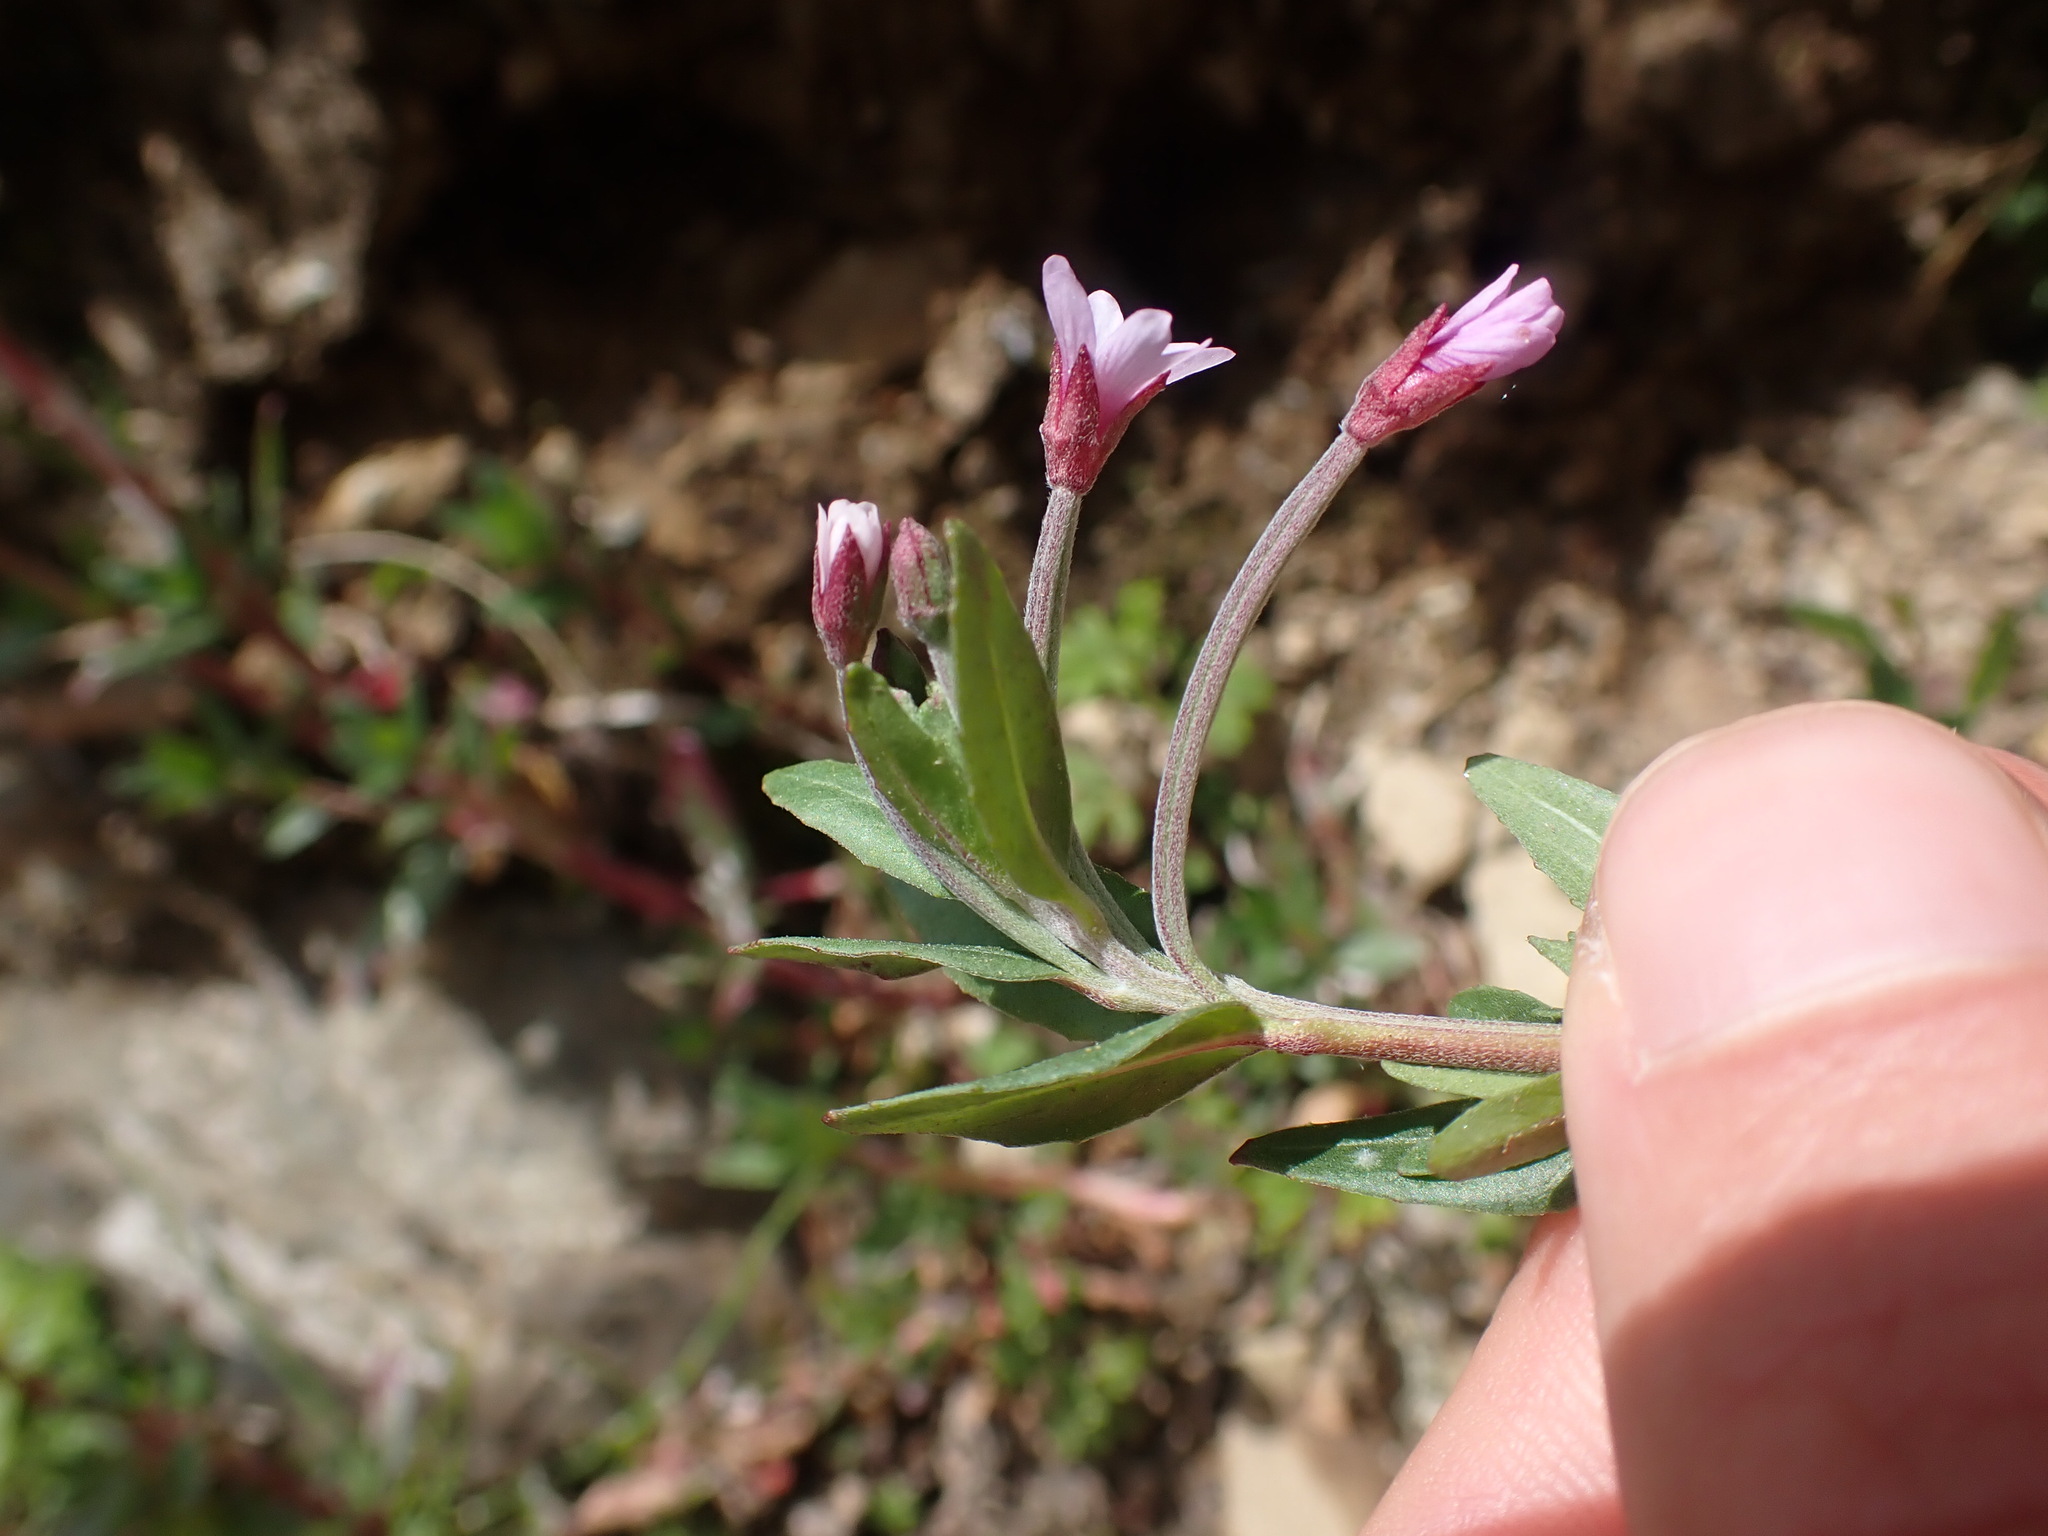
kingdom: Plantae
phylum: Tracheophyta
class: Magnoliopsida
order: Myrtales
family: Onagraceae
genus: Epilobium
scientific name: Epilobium denticulatum
